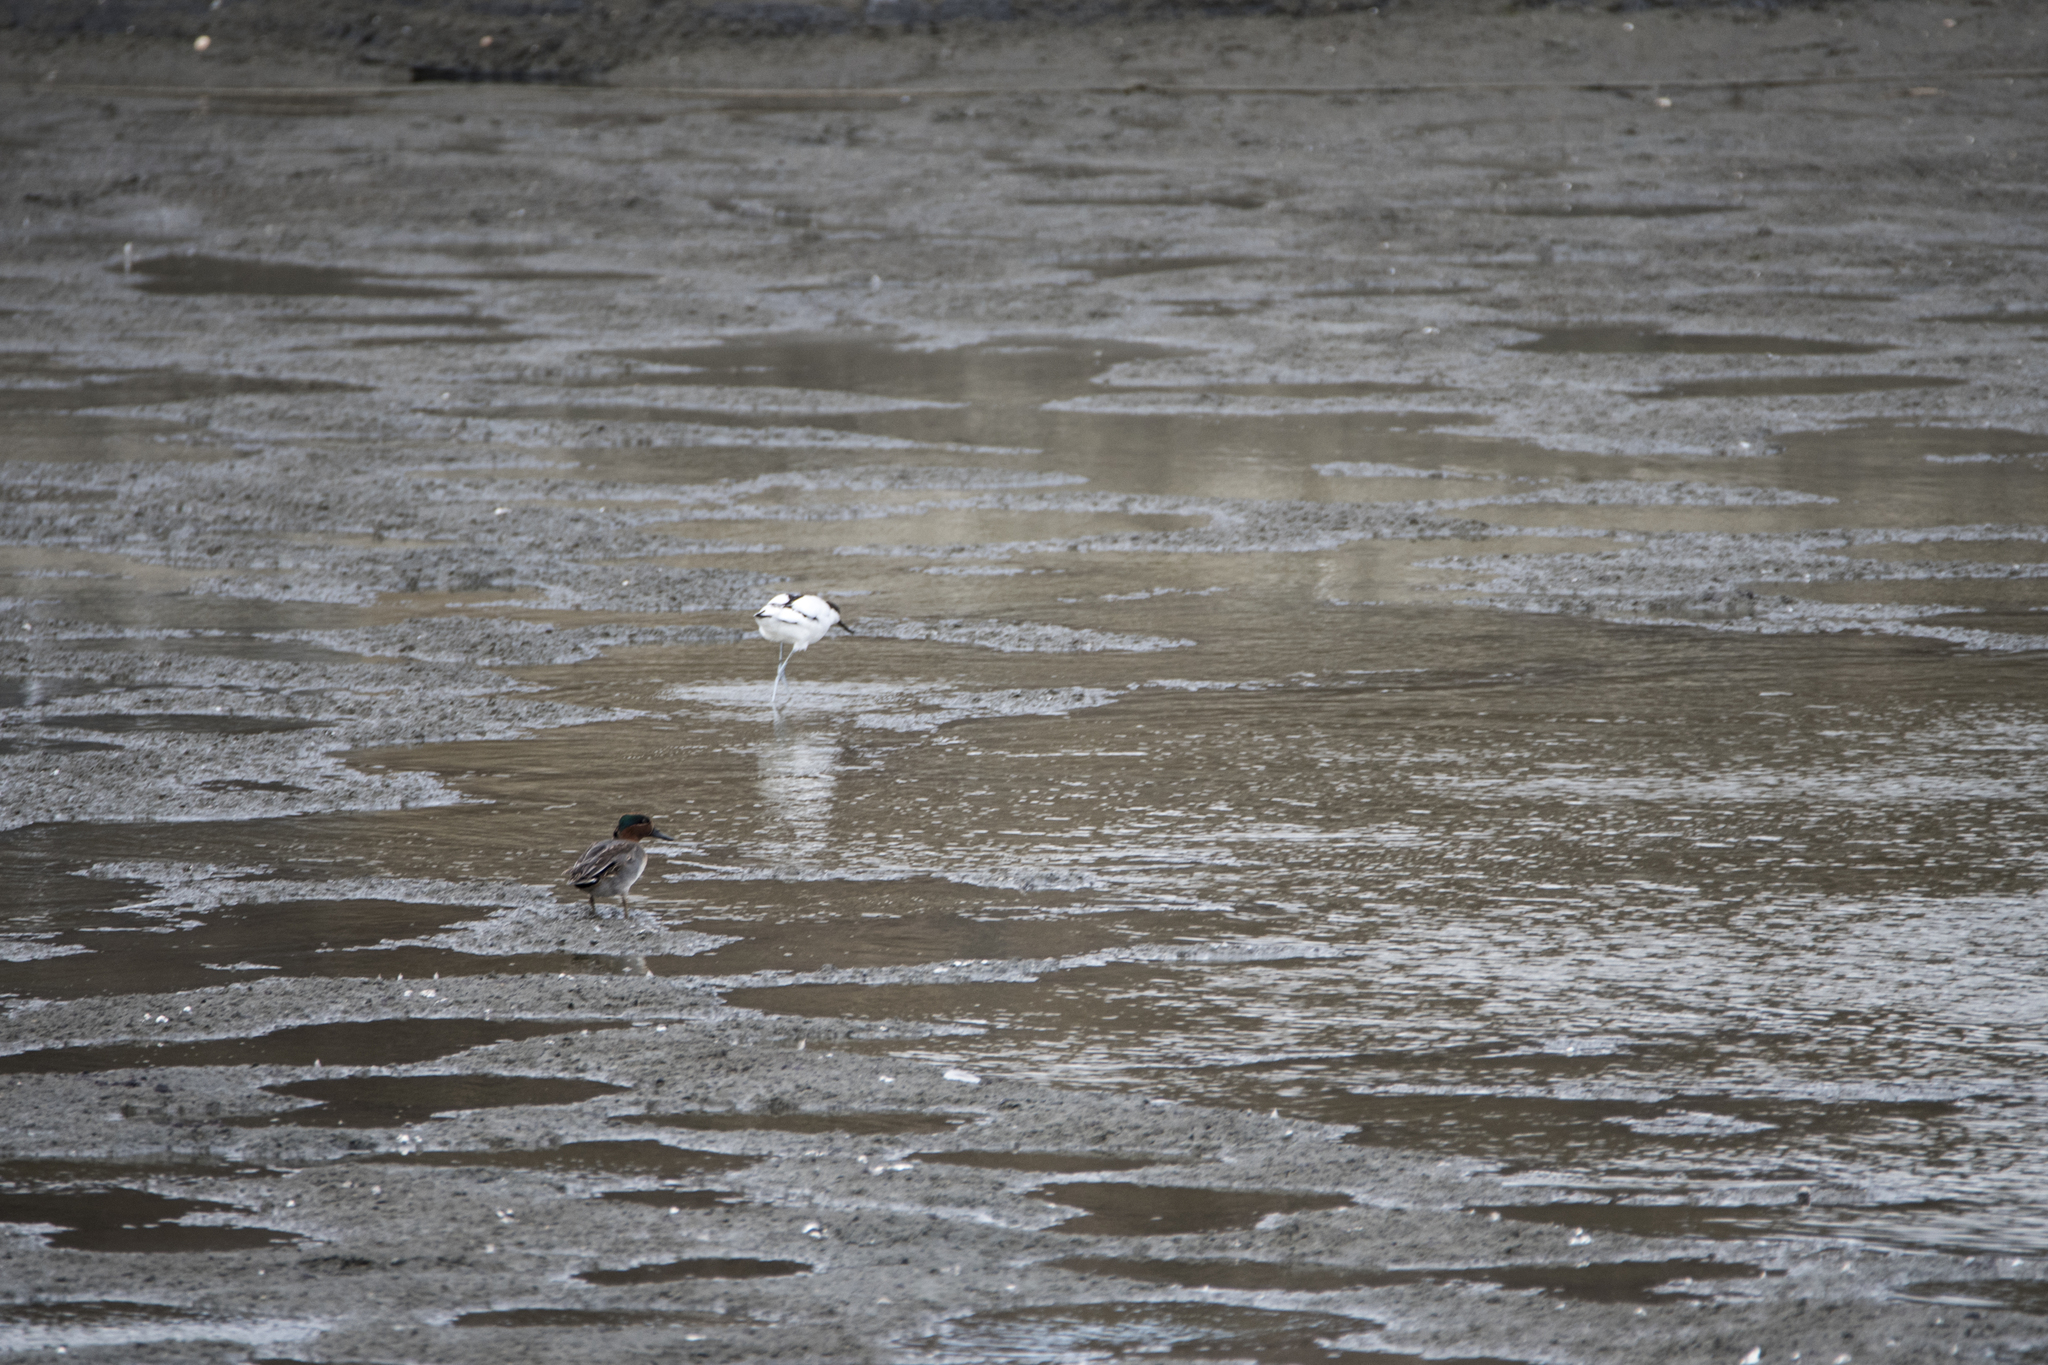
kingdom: Animalia
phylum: Chordata
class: Aves
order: Anseriformes
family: Anatidae
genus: Anas
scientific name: Anas crecca
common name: Eurasian teal
